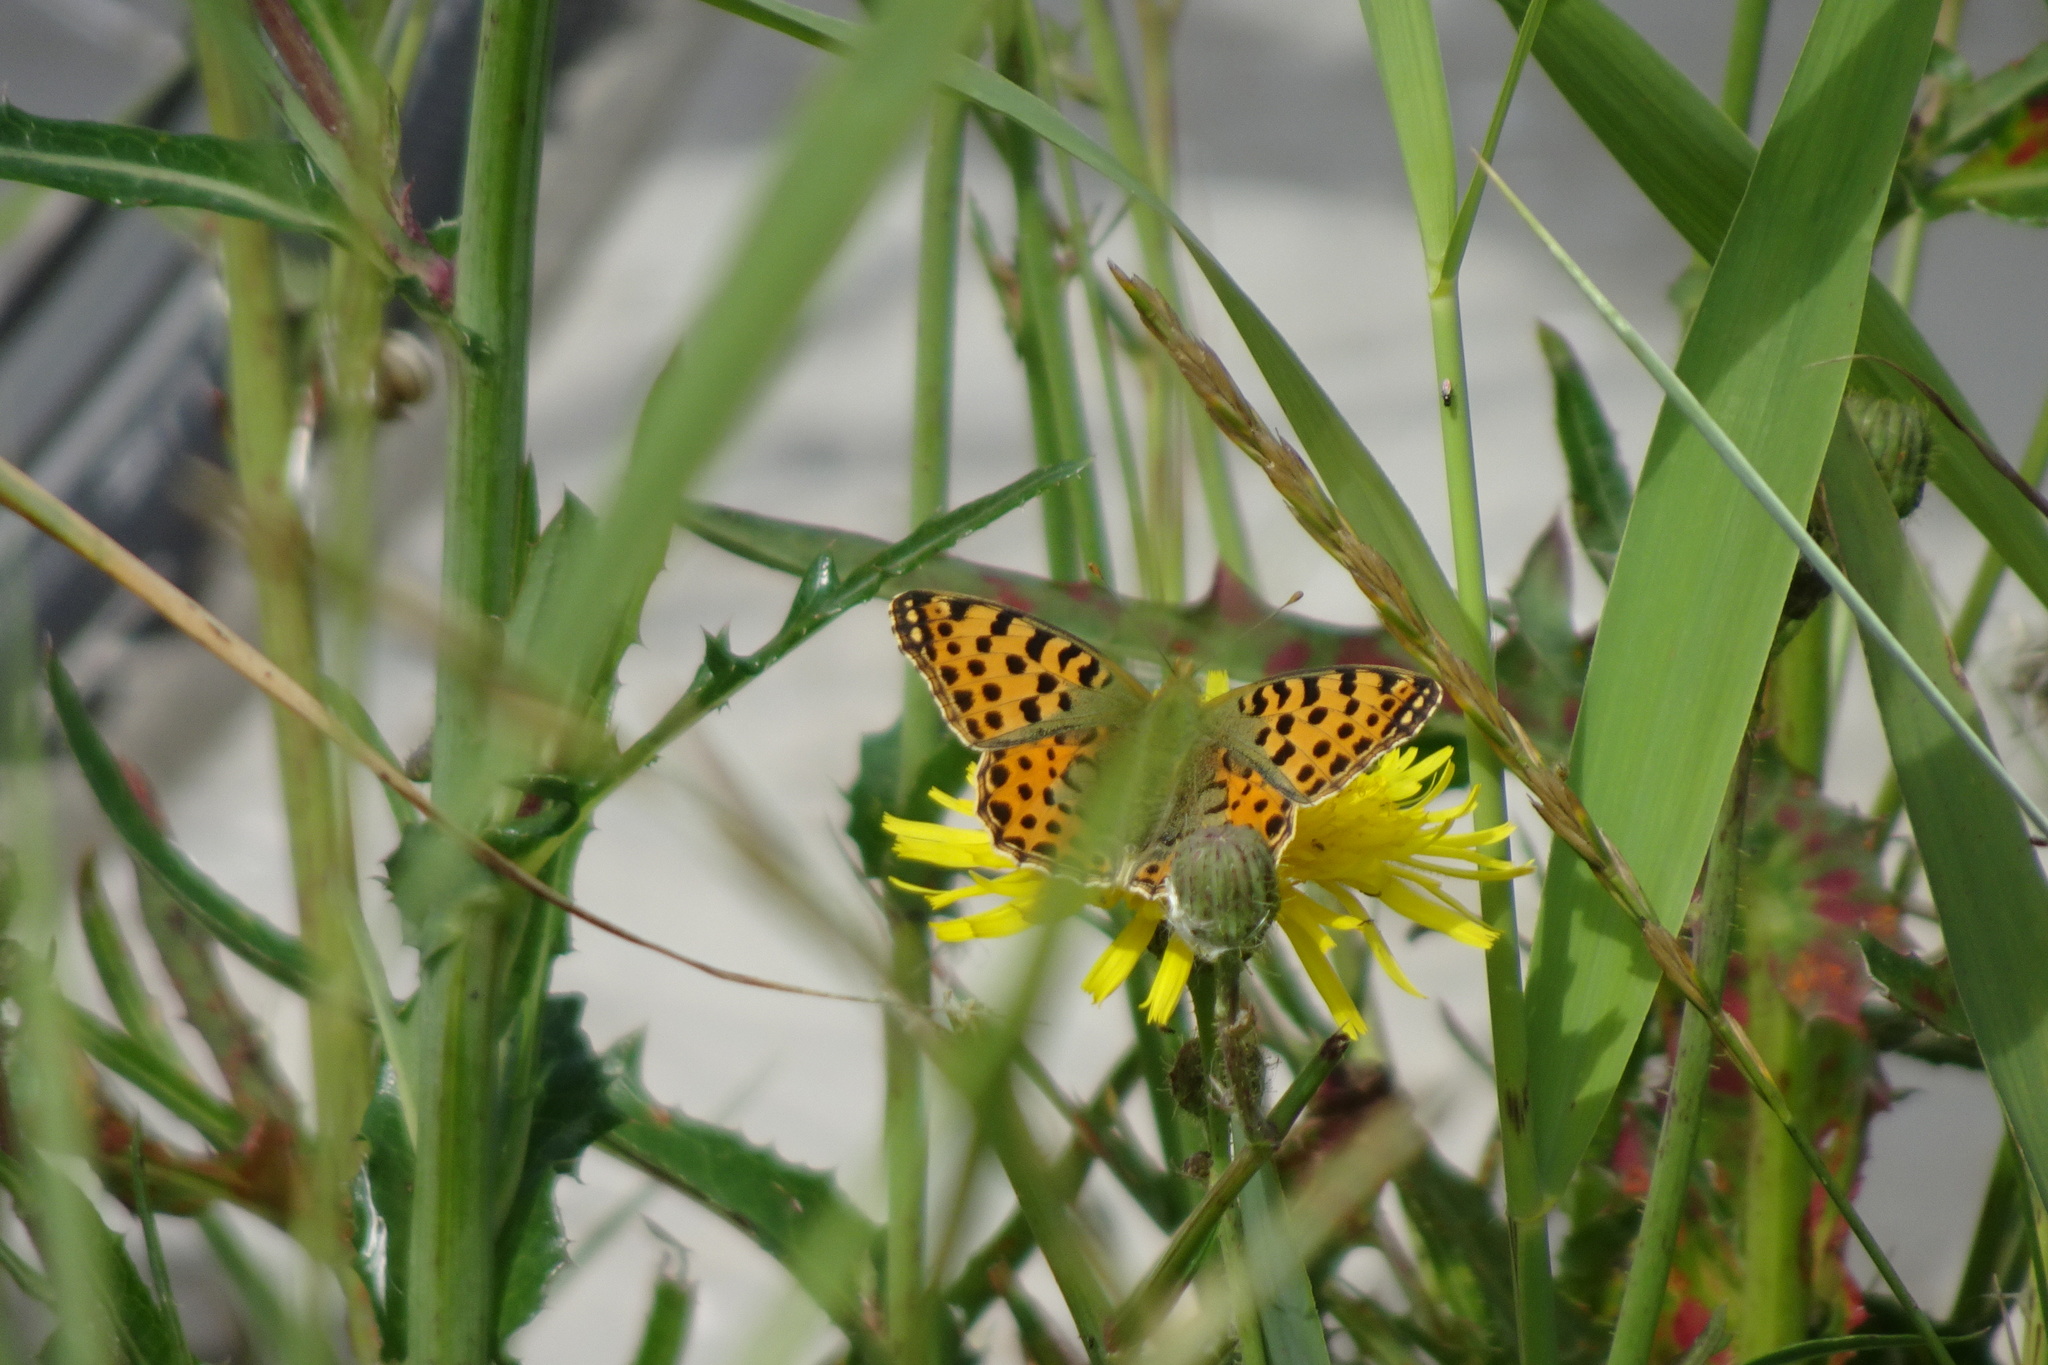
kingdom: Animalia
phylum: Arthropoda
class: Insecta
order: Lepidoptera
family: Nymphalidae
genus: Issoria
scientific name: Issoria lathonia
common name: Queen of spain fritillary
